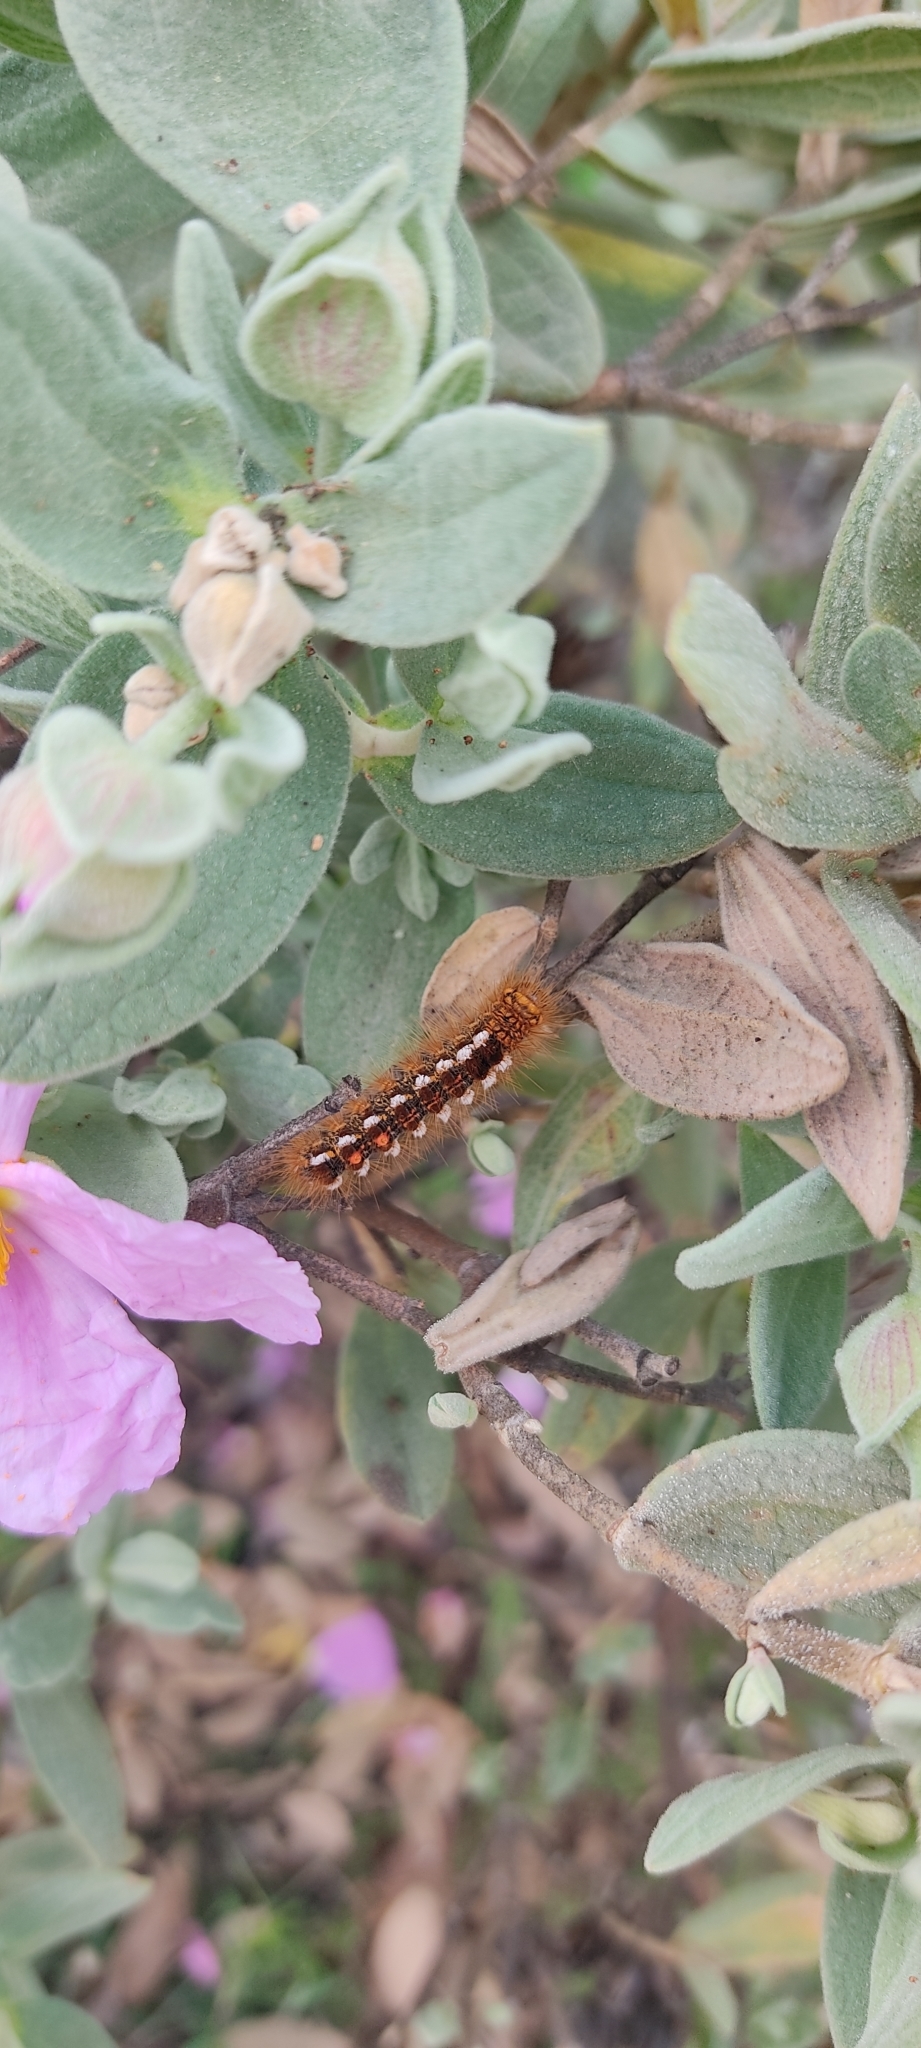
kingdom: Animalia
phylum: Arthropoda
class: Insecta
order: Lepidoptera
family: Erebidae
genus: Euproctis
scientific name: Euproctis chrysorrhoea
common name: Brown-tail
